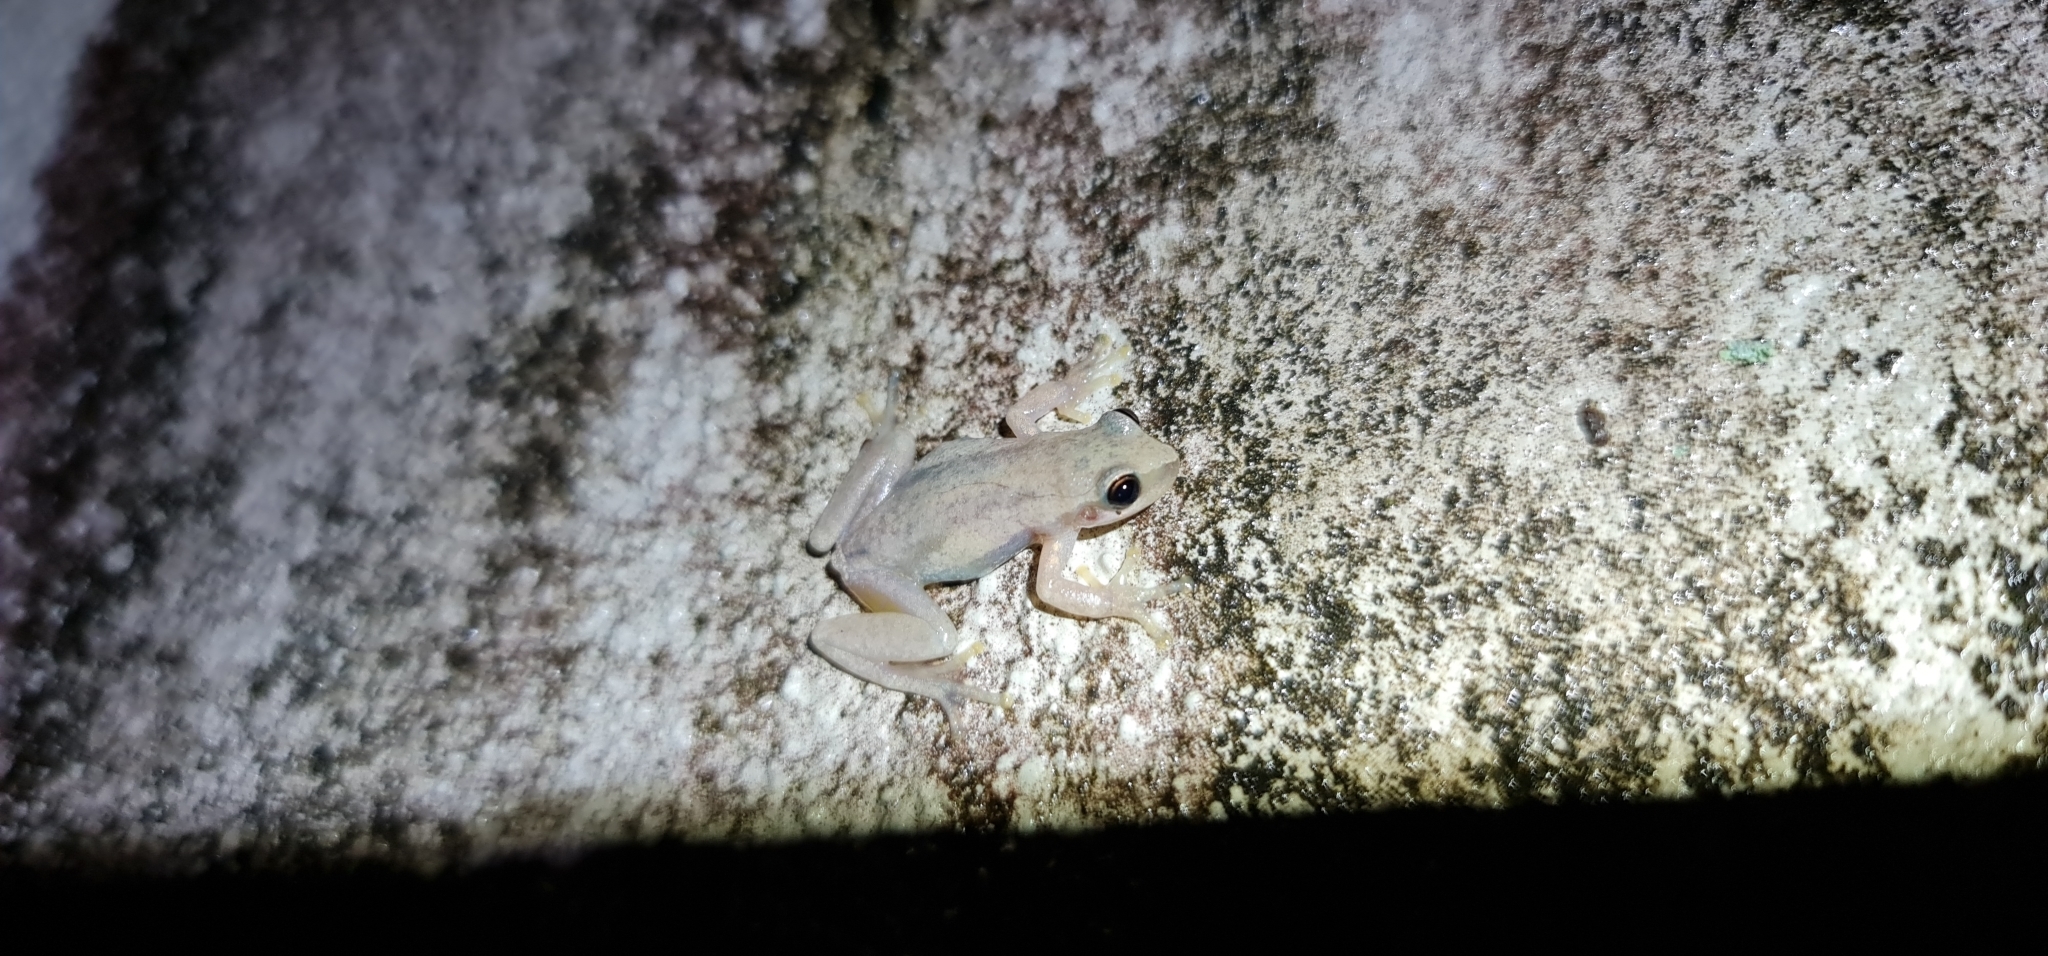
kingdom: Animalia
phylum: Chordata
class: Amphibia
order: Anura
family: Pelodryadidae
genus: Litoria
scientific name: Litoria rubella
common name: Desert tree frog
